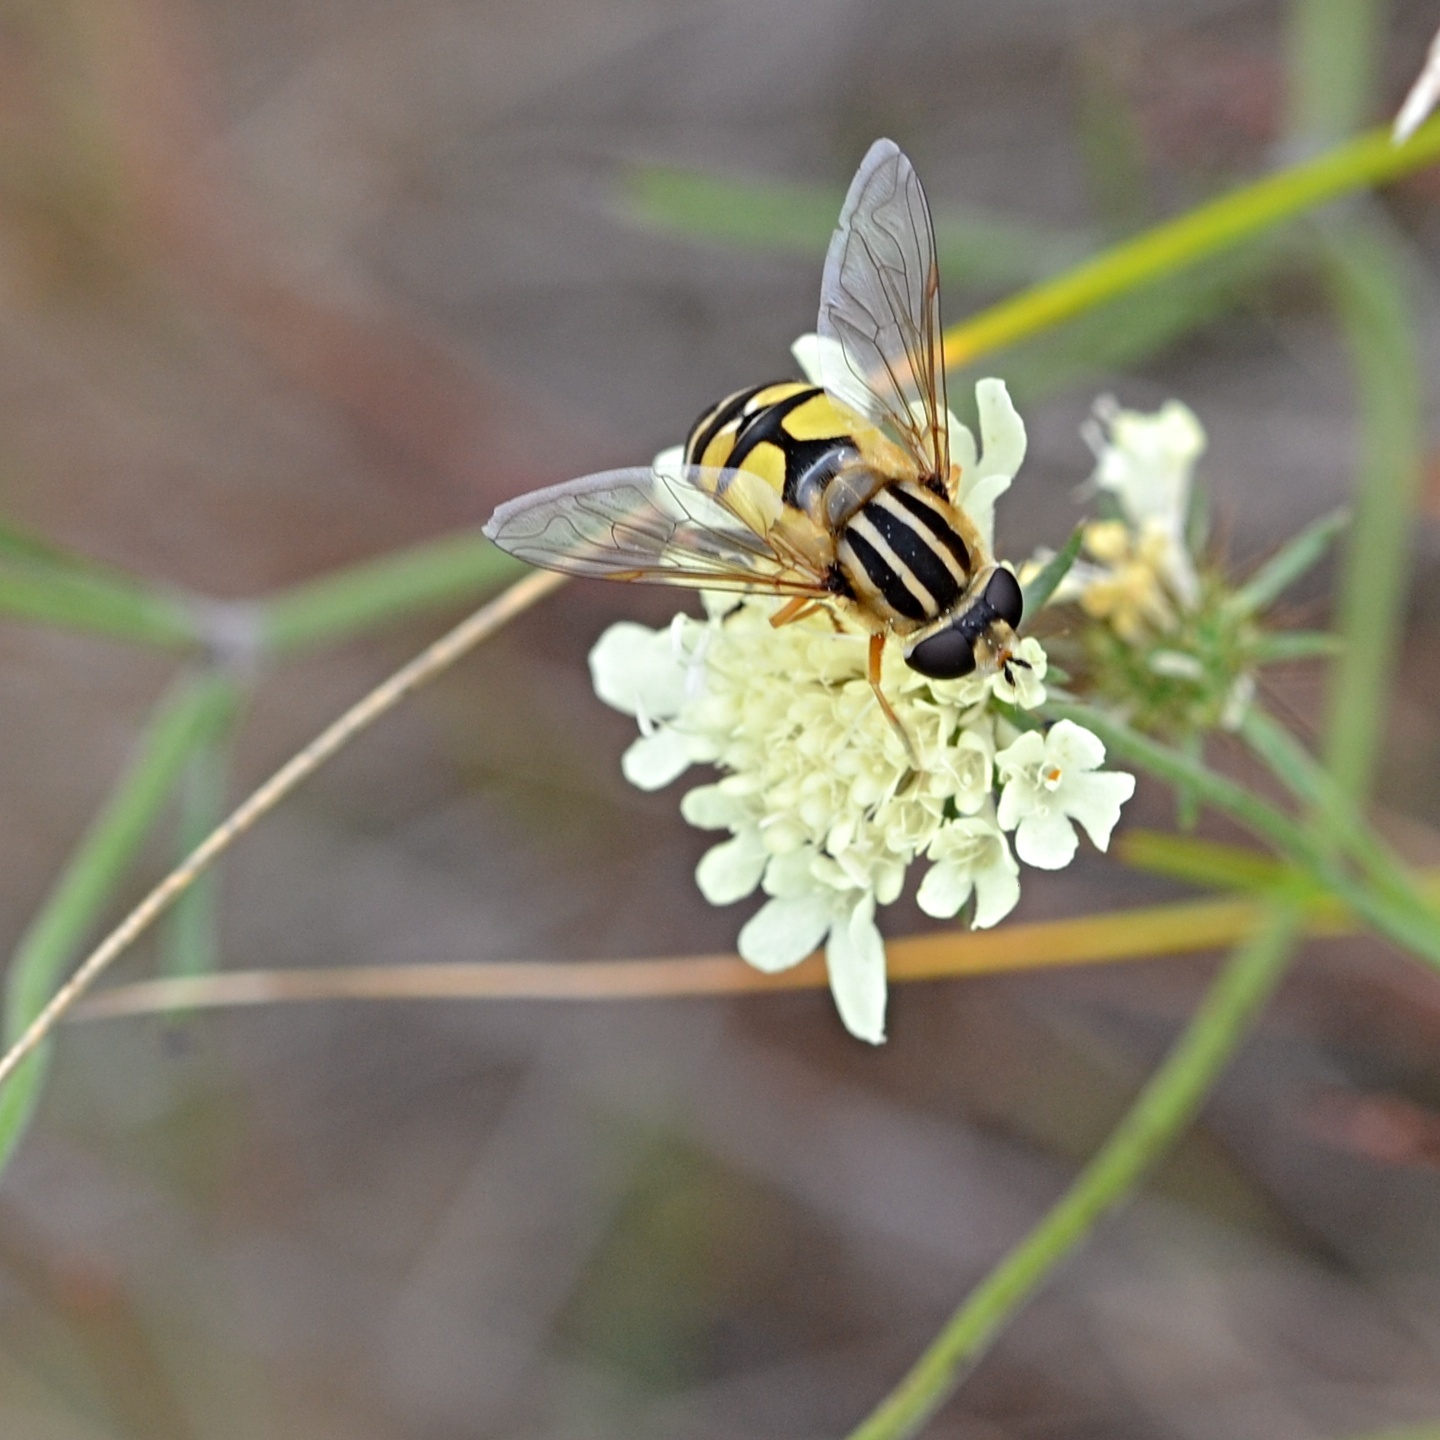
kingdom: Animalia
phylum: Arthropoda
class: Insecta
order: Diptera
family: Syrphidae
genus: Helophilus
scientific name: Helophilus trivittatus
